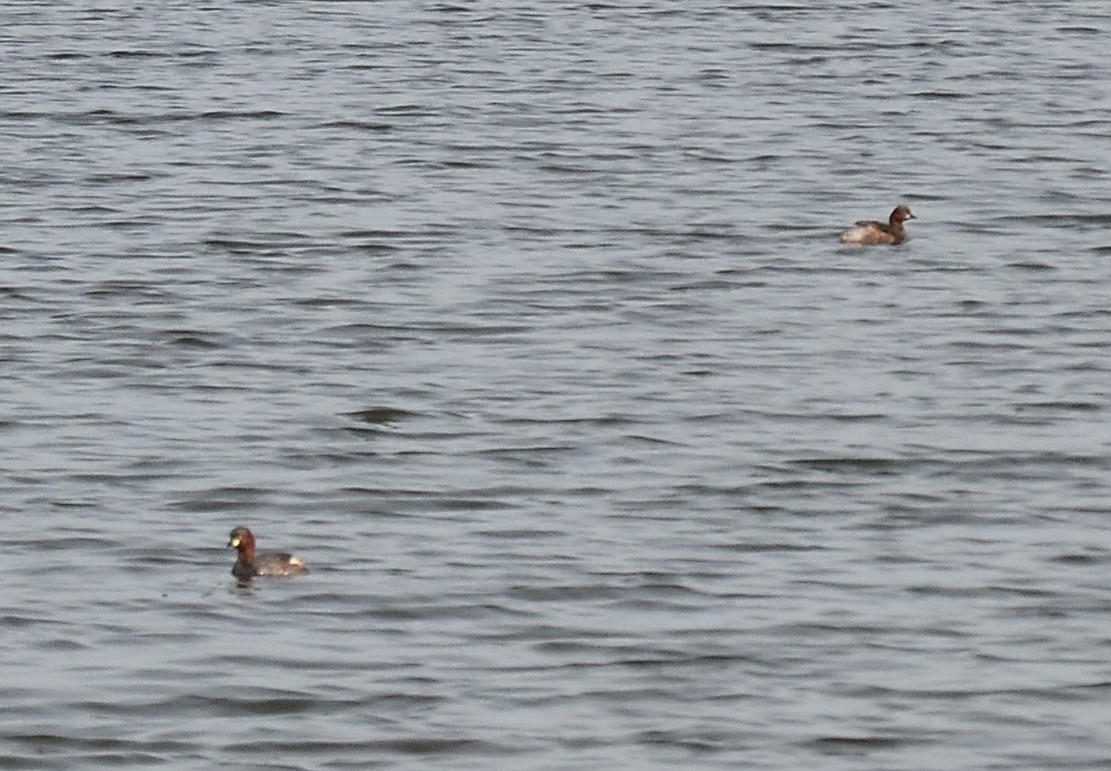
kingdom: Animalia
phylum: Chordata
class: Aves
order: Podicipediformes
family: Podicipedidae
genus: Tachybaptus
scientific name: Tachybaptus ruficollis
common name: Little grebe
